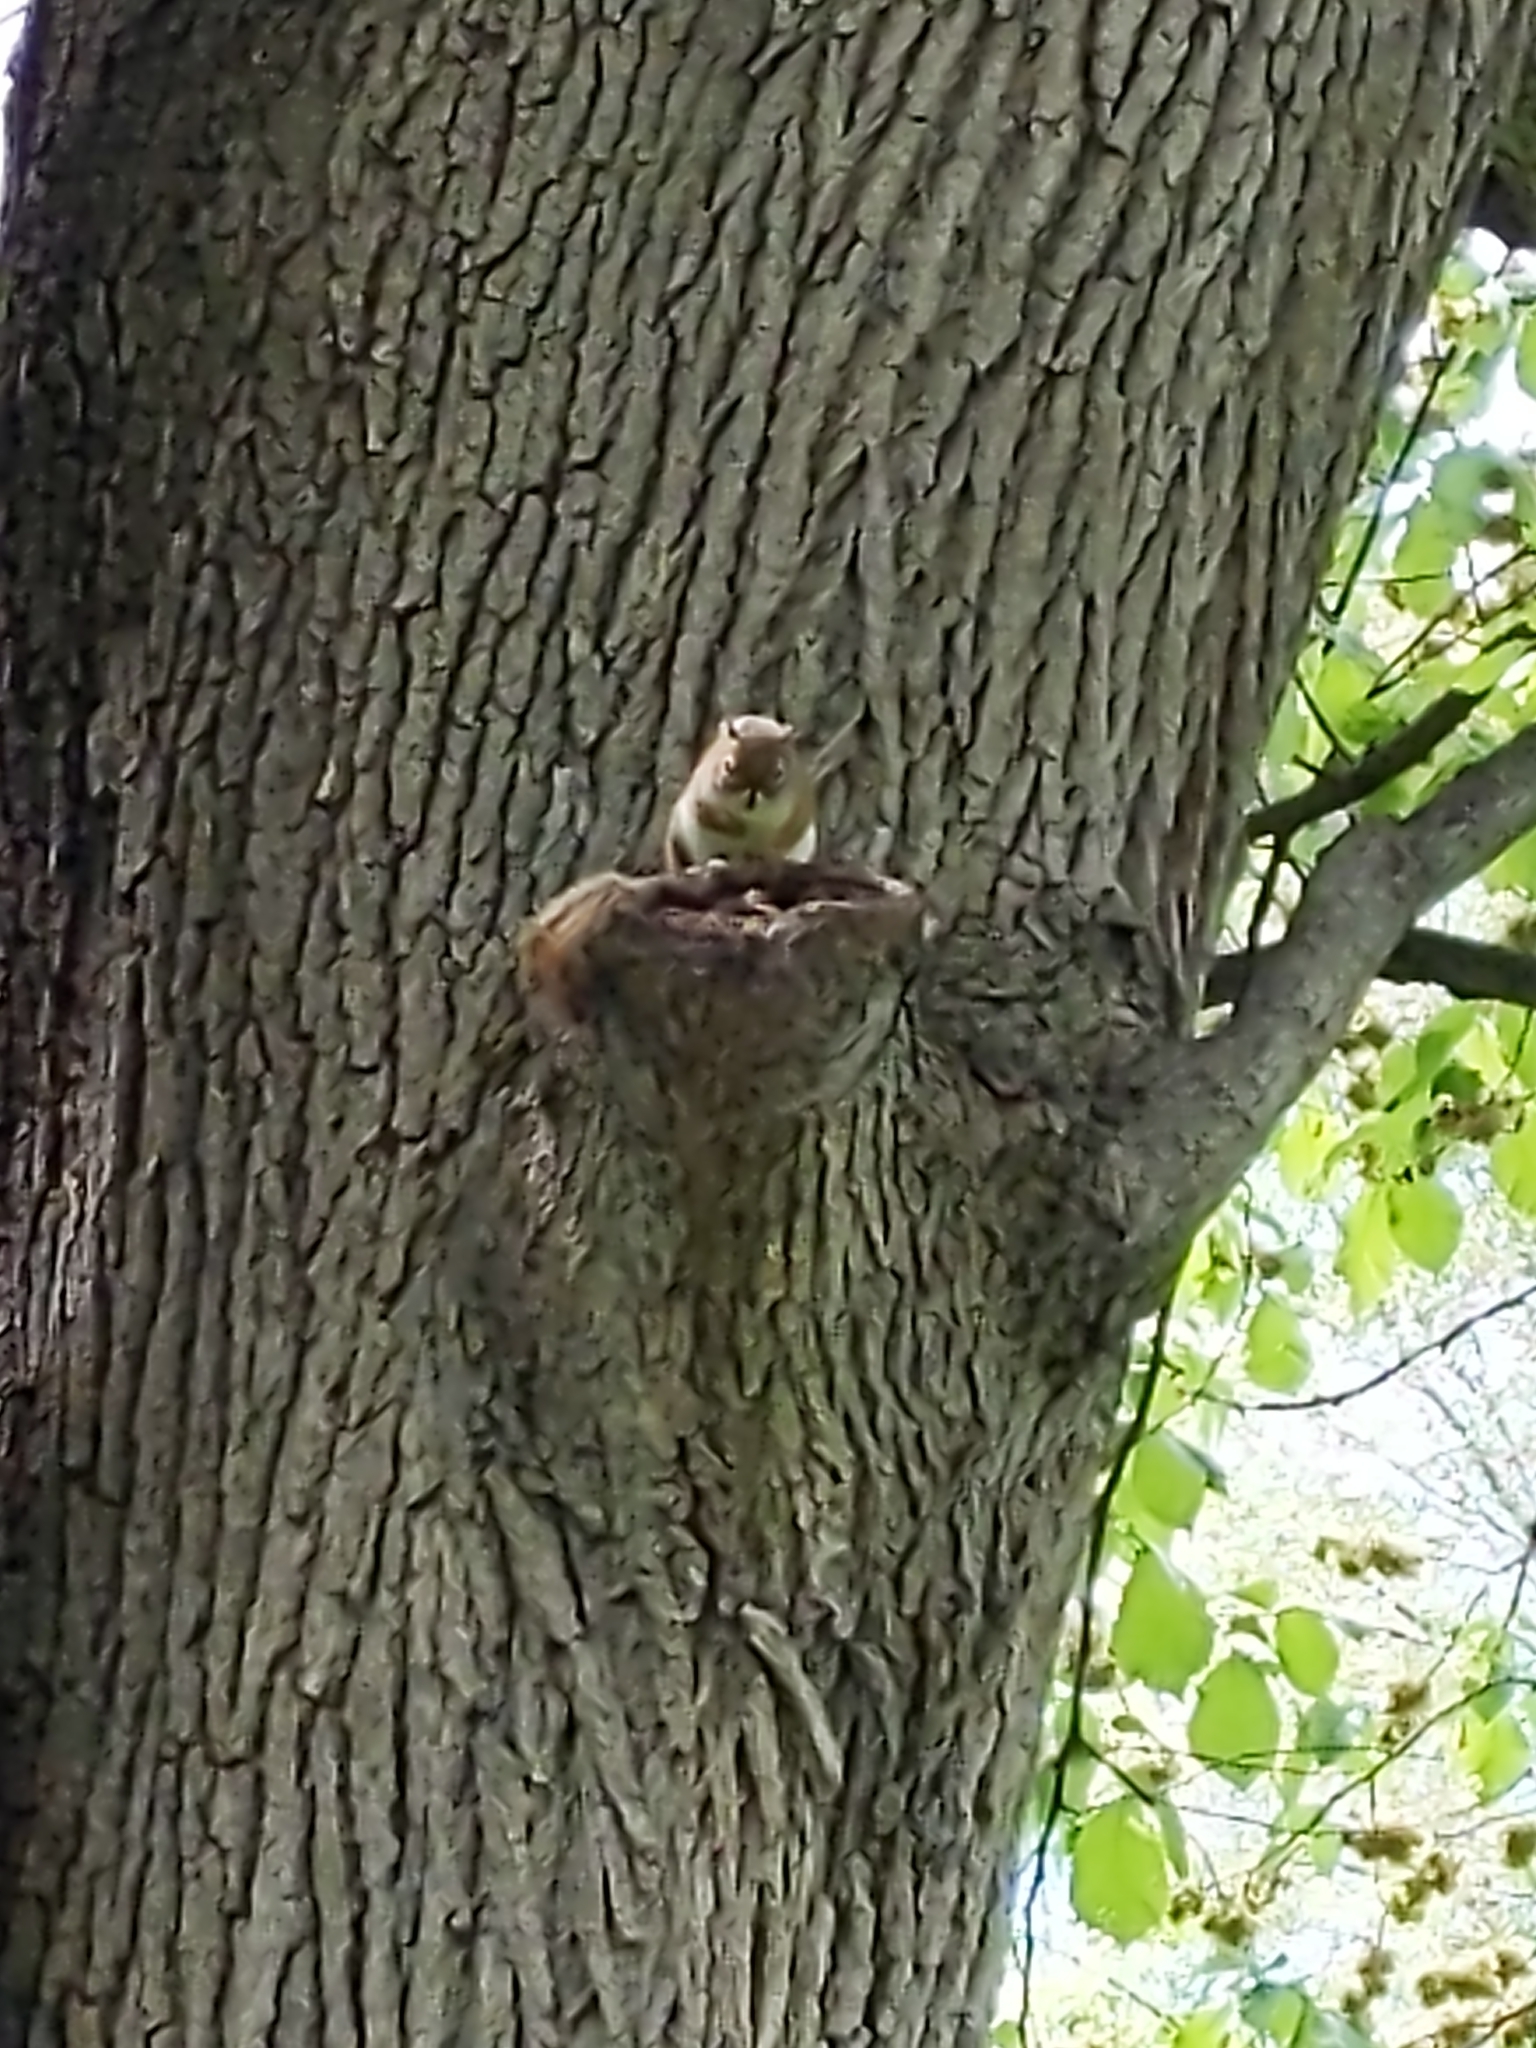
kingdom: Animalia
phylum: Chordata
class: Mammalia
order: Rodentia
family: Sciuridae
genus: Tamiasciurus
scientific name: Tamiasciurus hudsonicus
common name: Red squirrel
